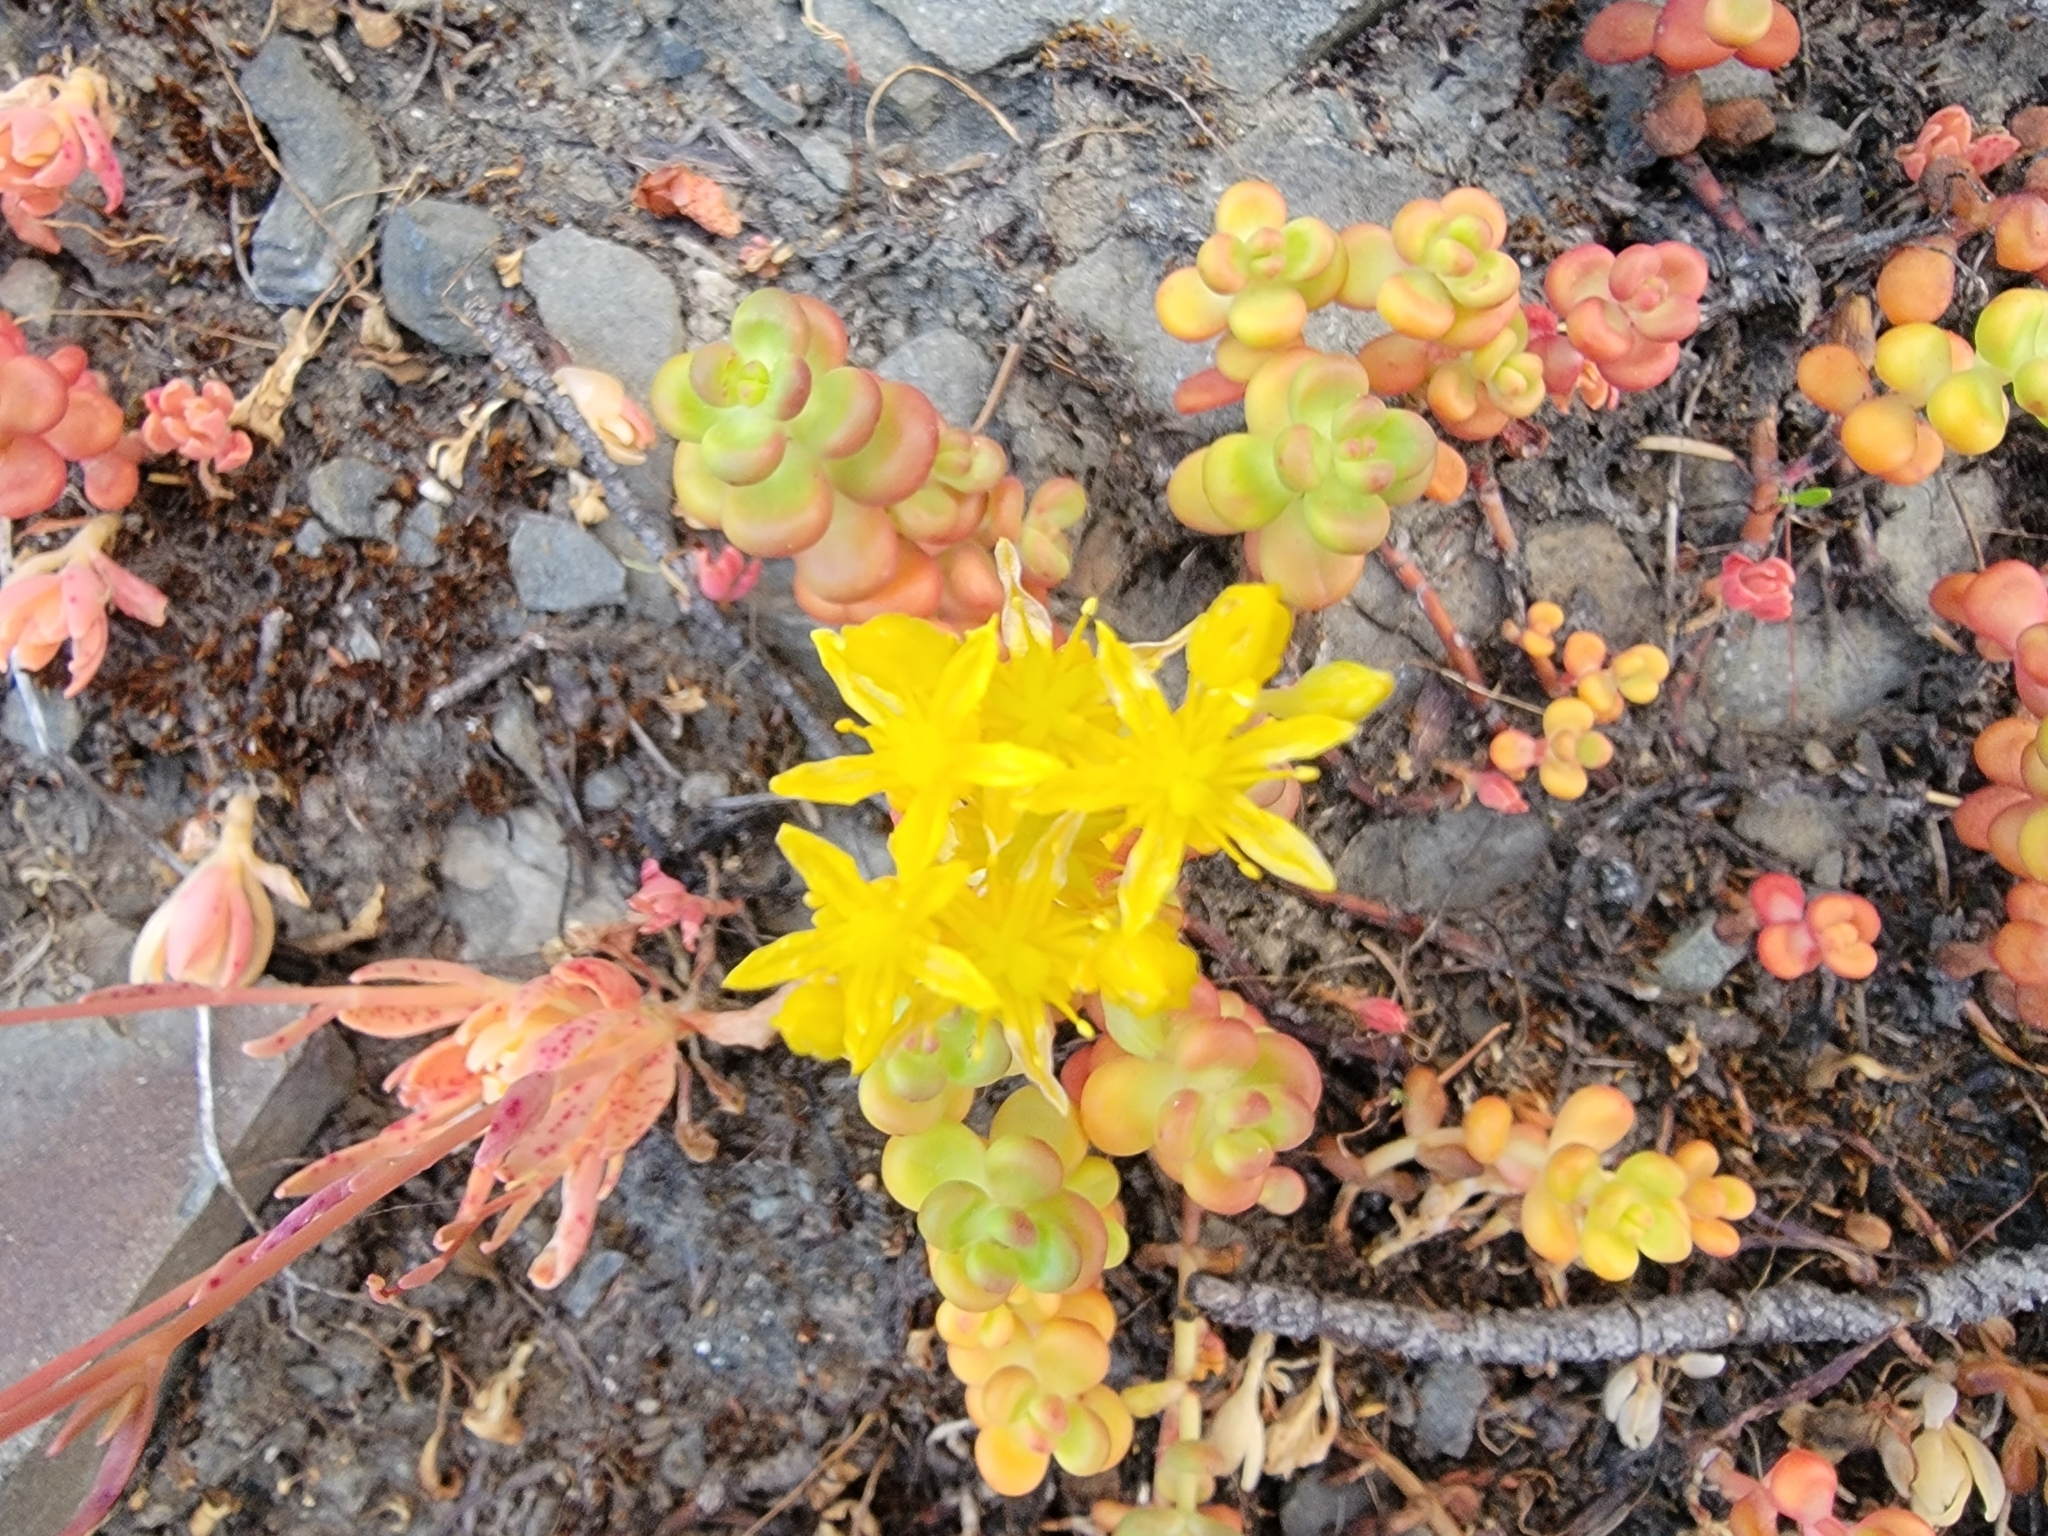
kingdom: Plantae
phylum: Tracheophyta
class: Magnoliopsida
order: Saxifragales
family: Crassulaceae
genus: Sedum
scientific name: Sedum divergens
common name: Cascade stonecrop
